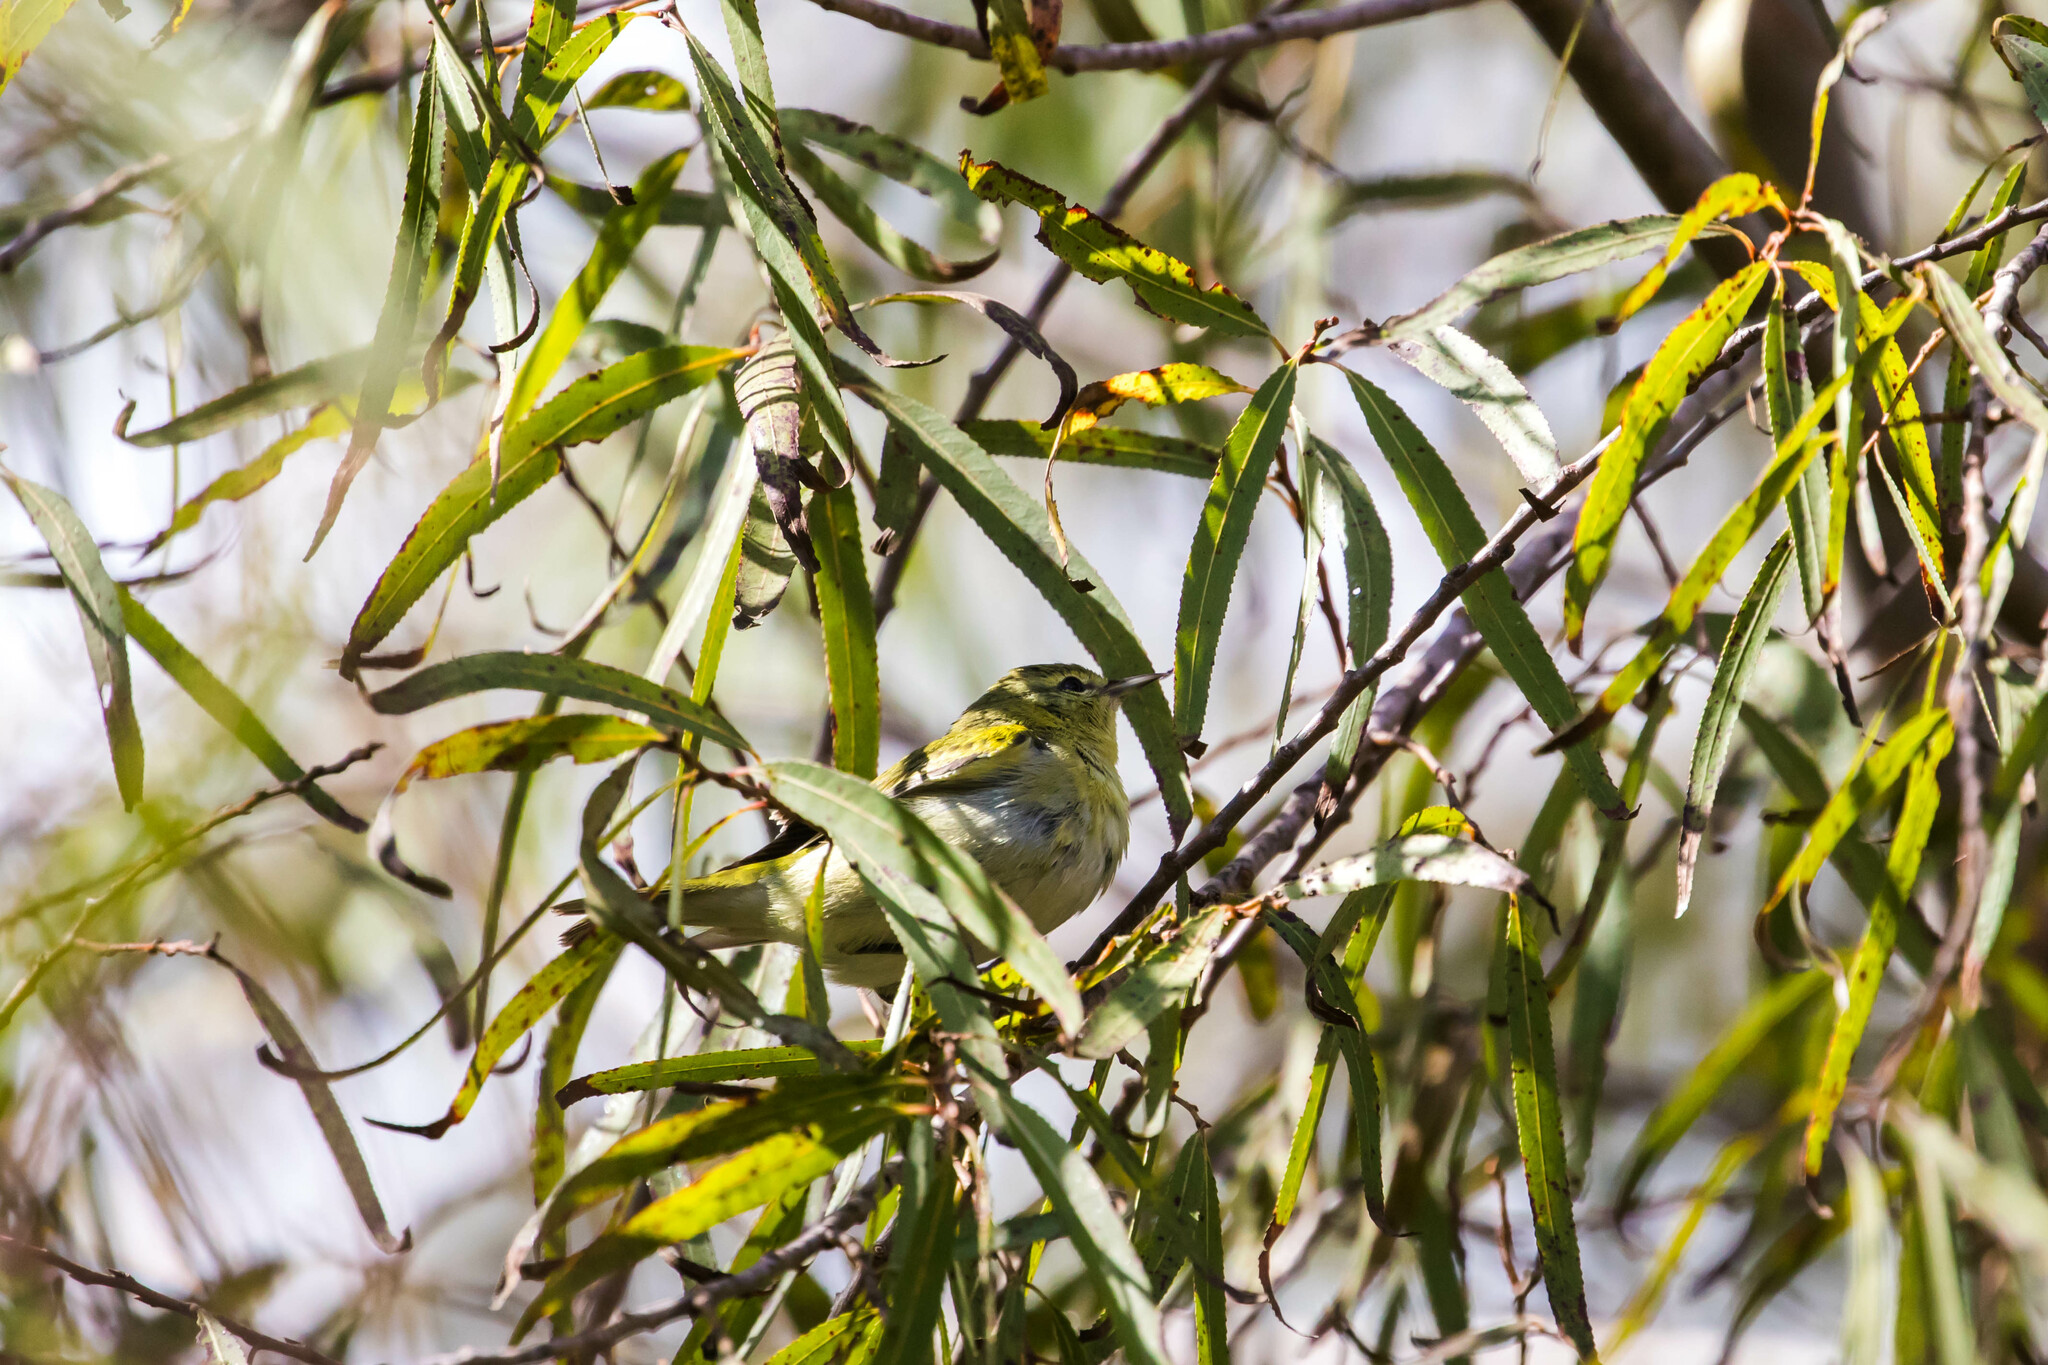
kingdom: Animalia
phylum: Chordata
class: Aves
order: Passeriformes
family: Parulidae
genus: Leiothlypis
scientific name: Leiothlypis peregrina
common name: Tennessee warbler
